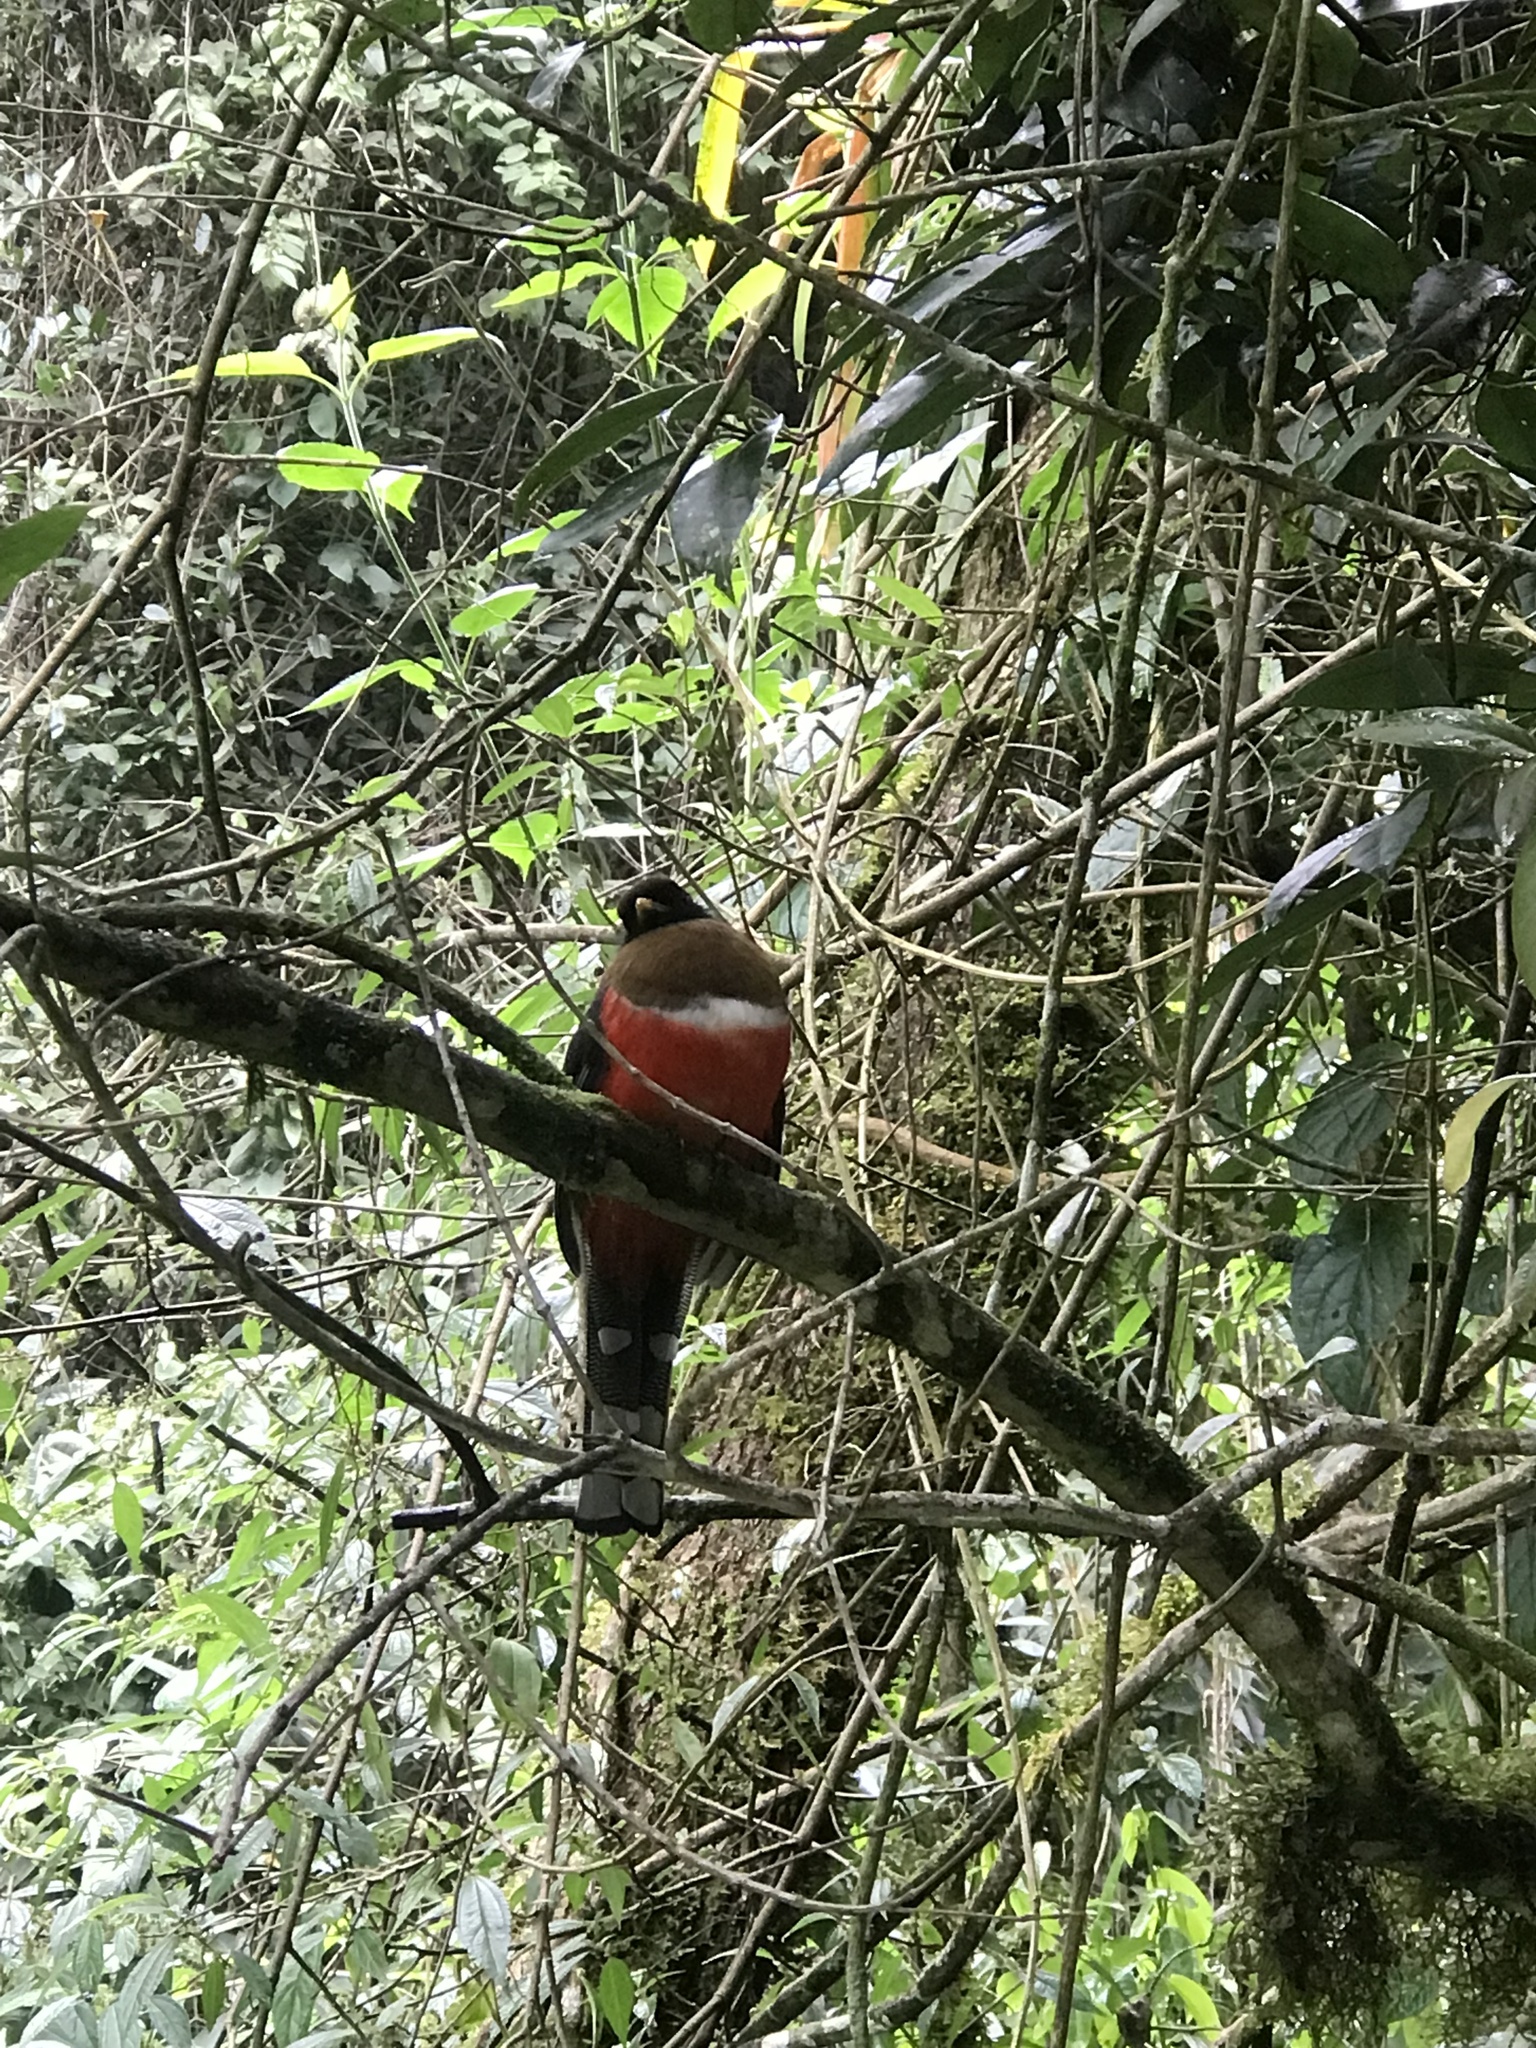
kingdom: Animalia
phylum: Chordata
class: Aves
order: Trogoniformes
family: Trogonidae
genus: Trogon
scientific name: Trogon personatus
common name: Masked trogon
